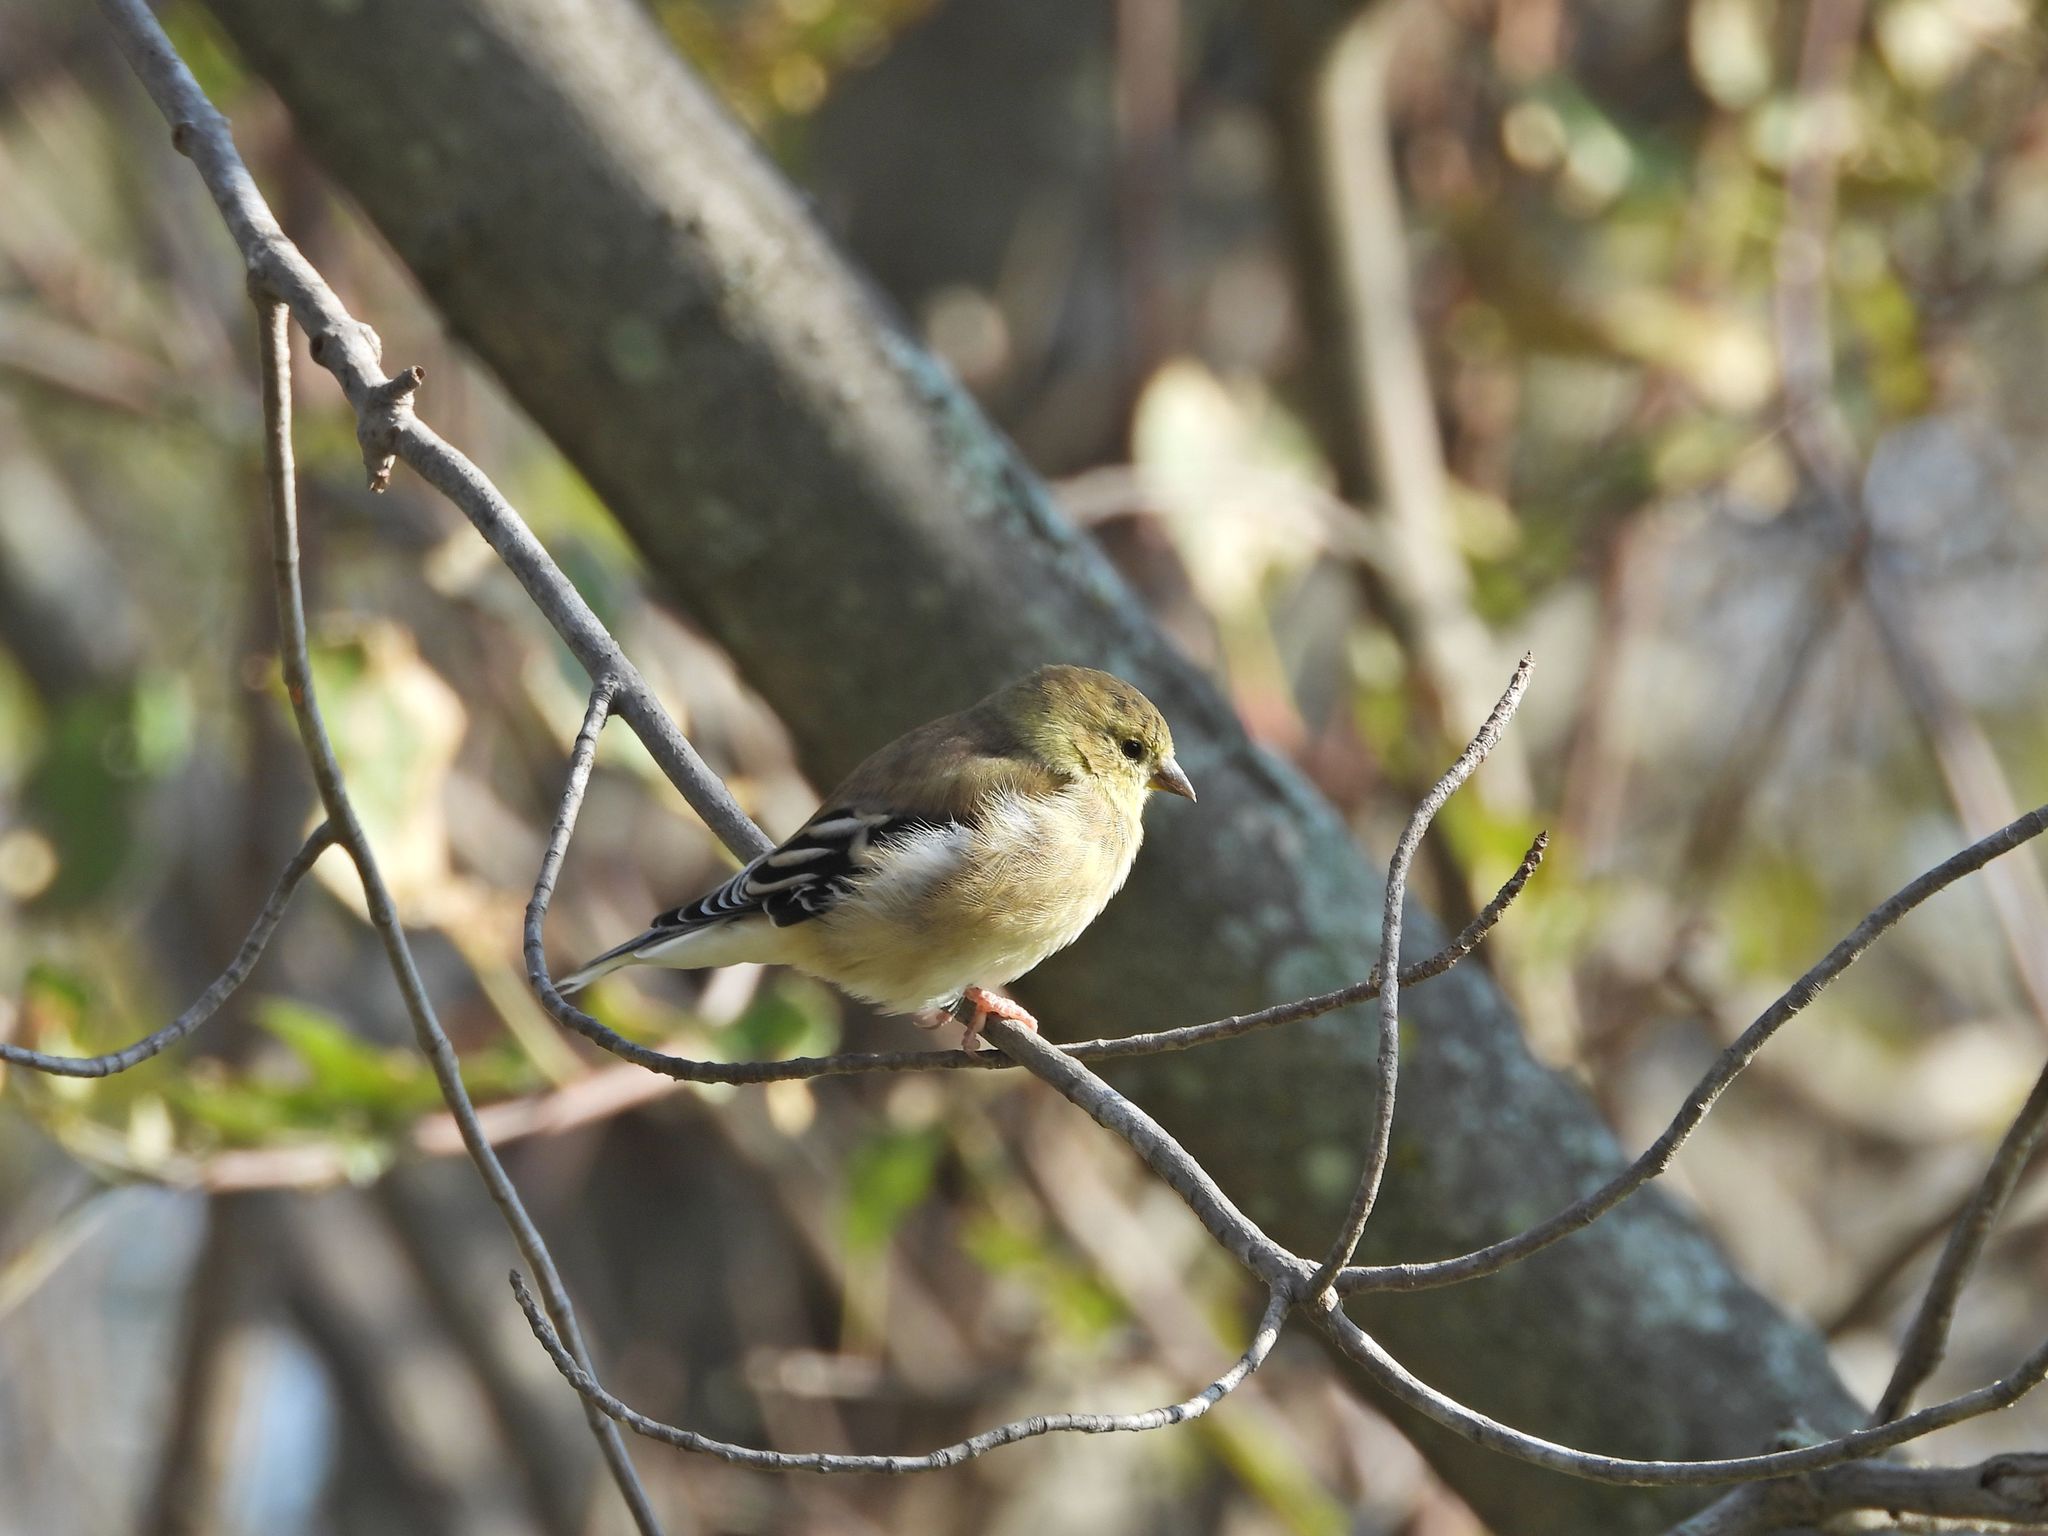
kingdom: Animalia
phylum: Chordata
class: Aves
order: Passeriformes
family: Fringillidae
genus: Spinus
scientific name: Spinus tristis
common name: American goldfinch
